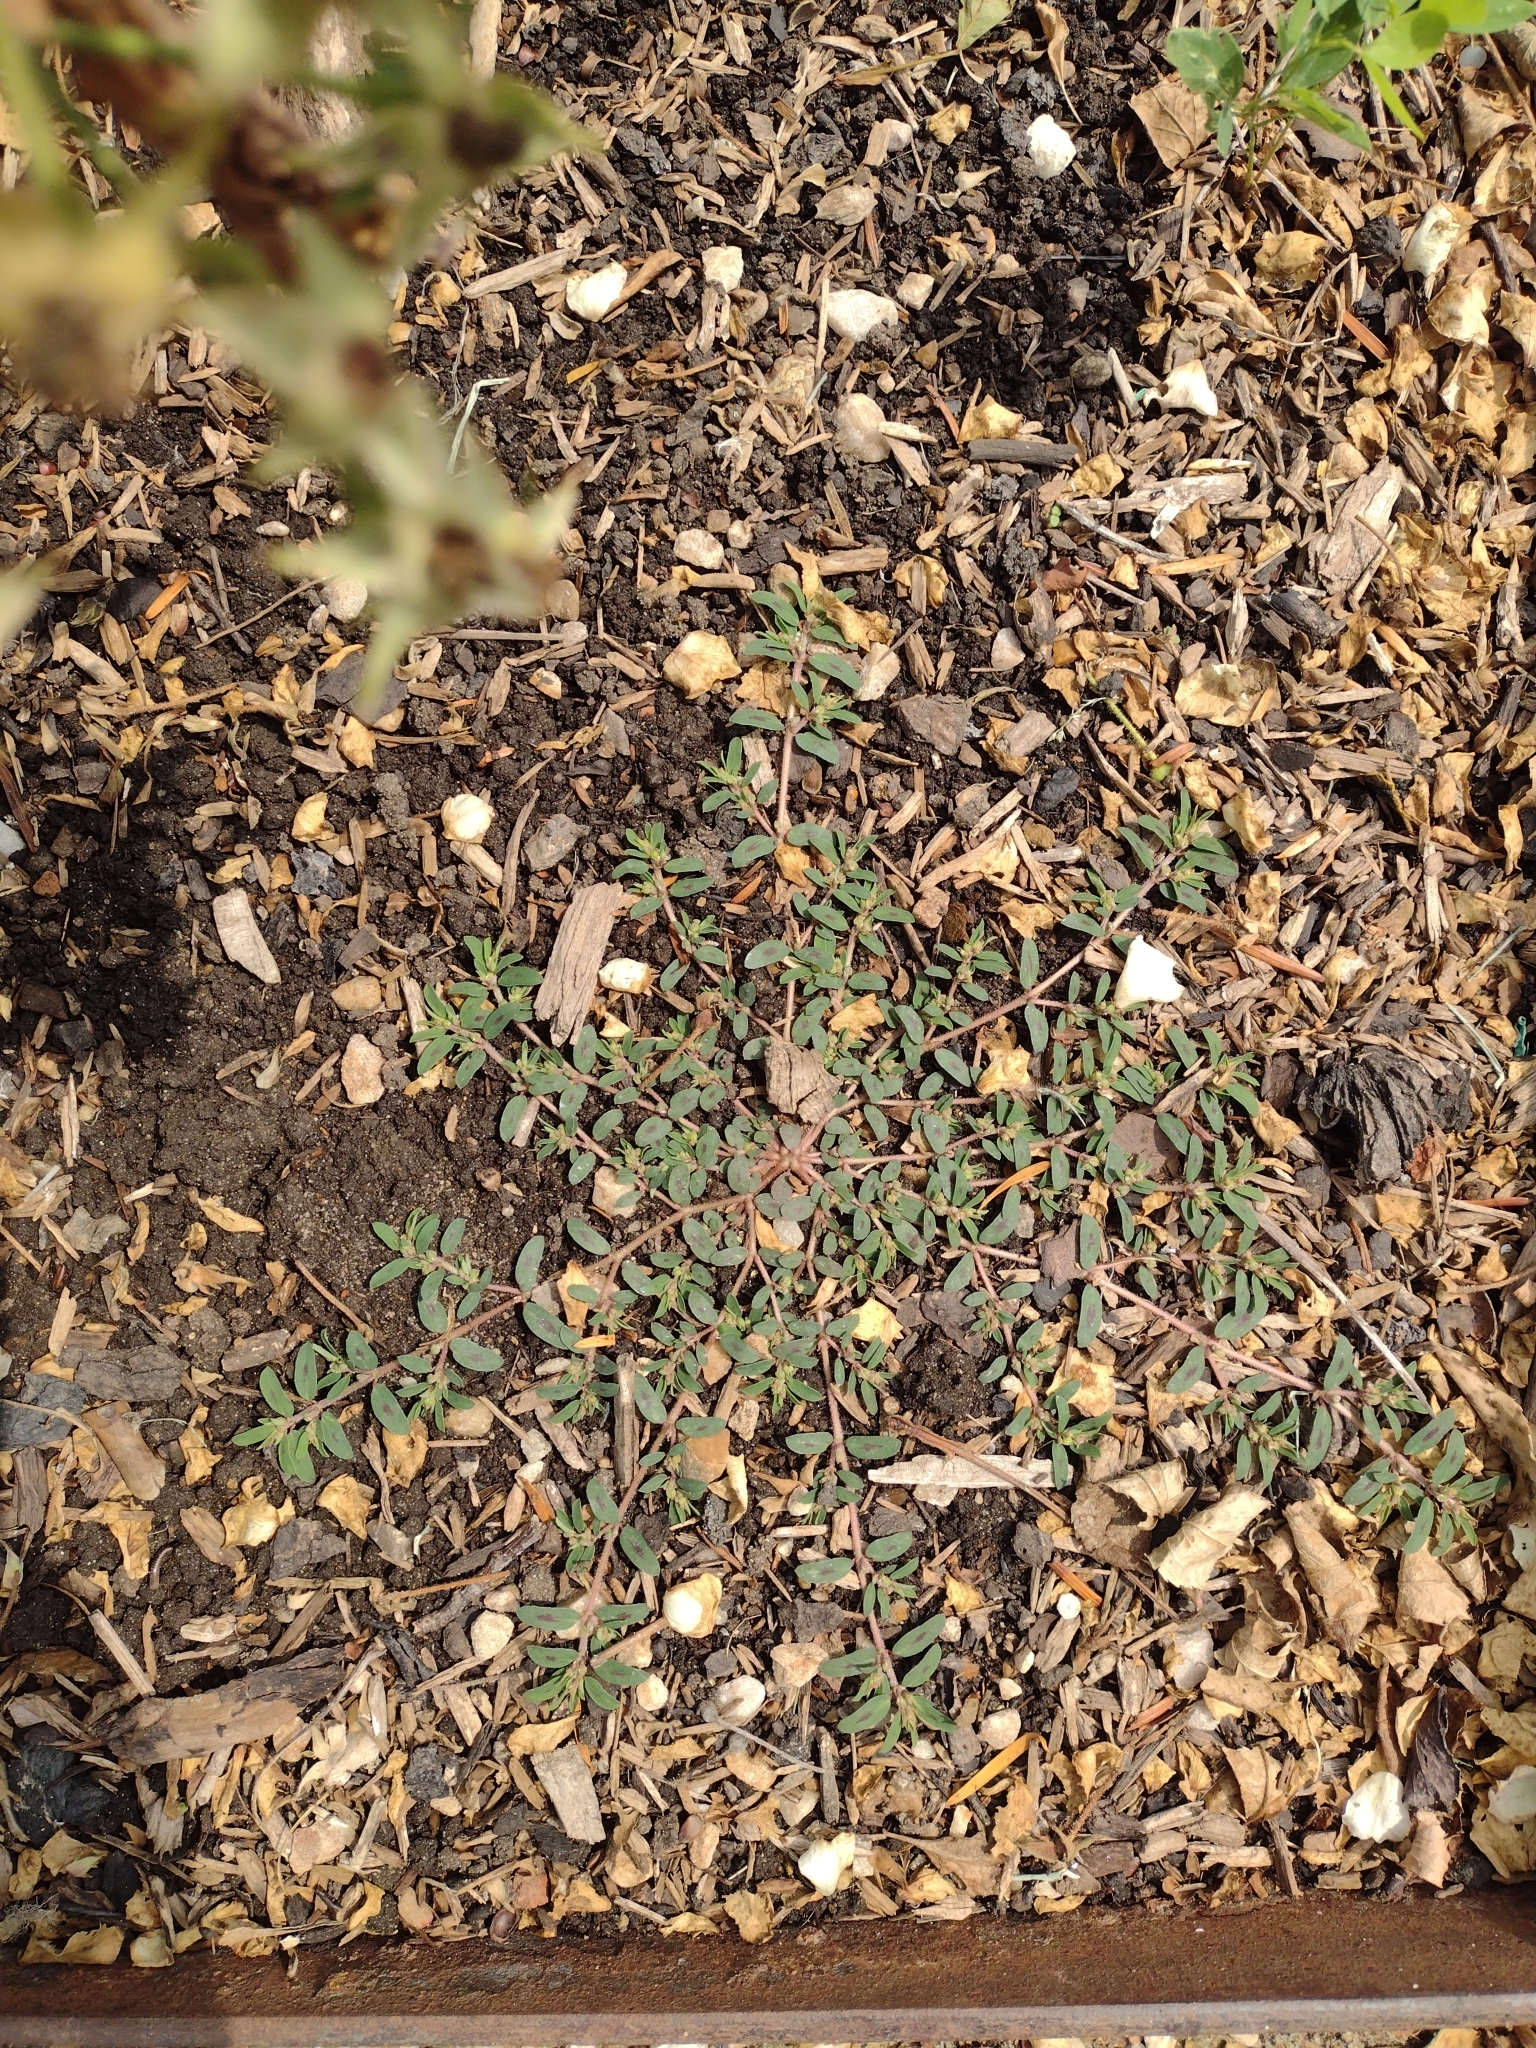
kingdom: Plantae
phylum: Tracheophyta
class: Magnoliopsida
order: Malpighiales
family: Euphorbiaceae
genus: Euphorbia
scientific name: Euphorbia maculata
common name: Spotted spurge
